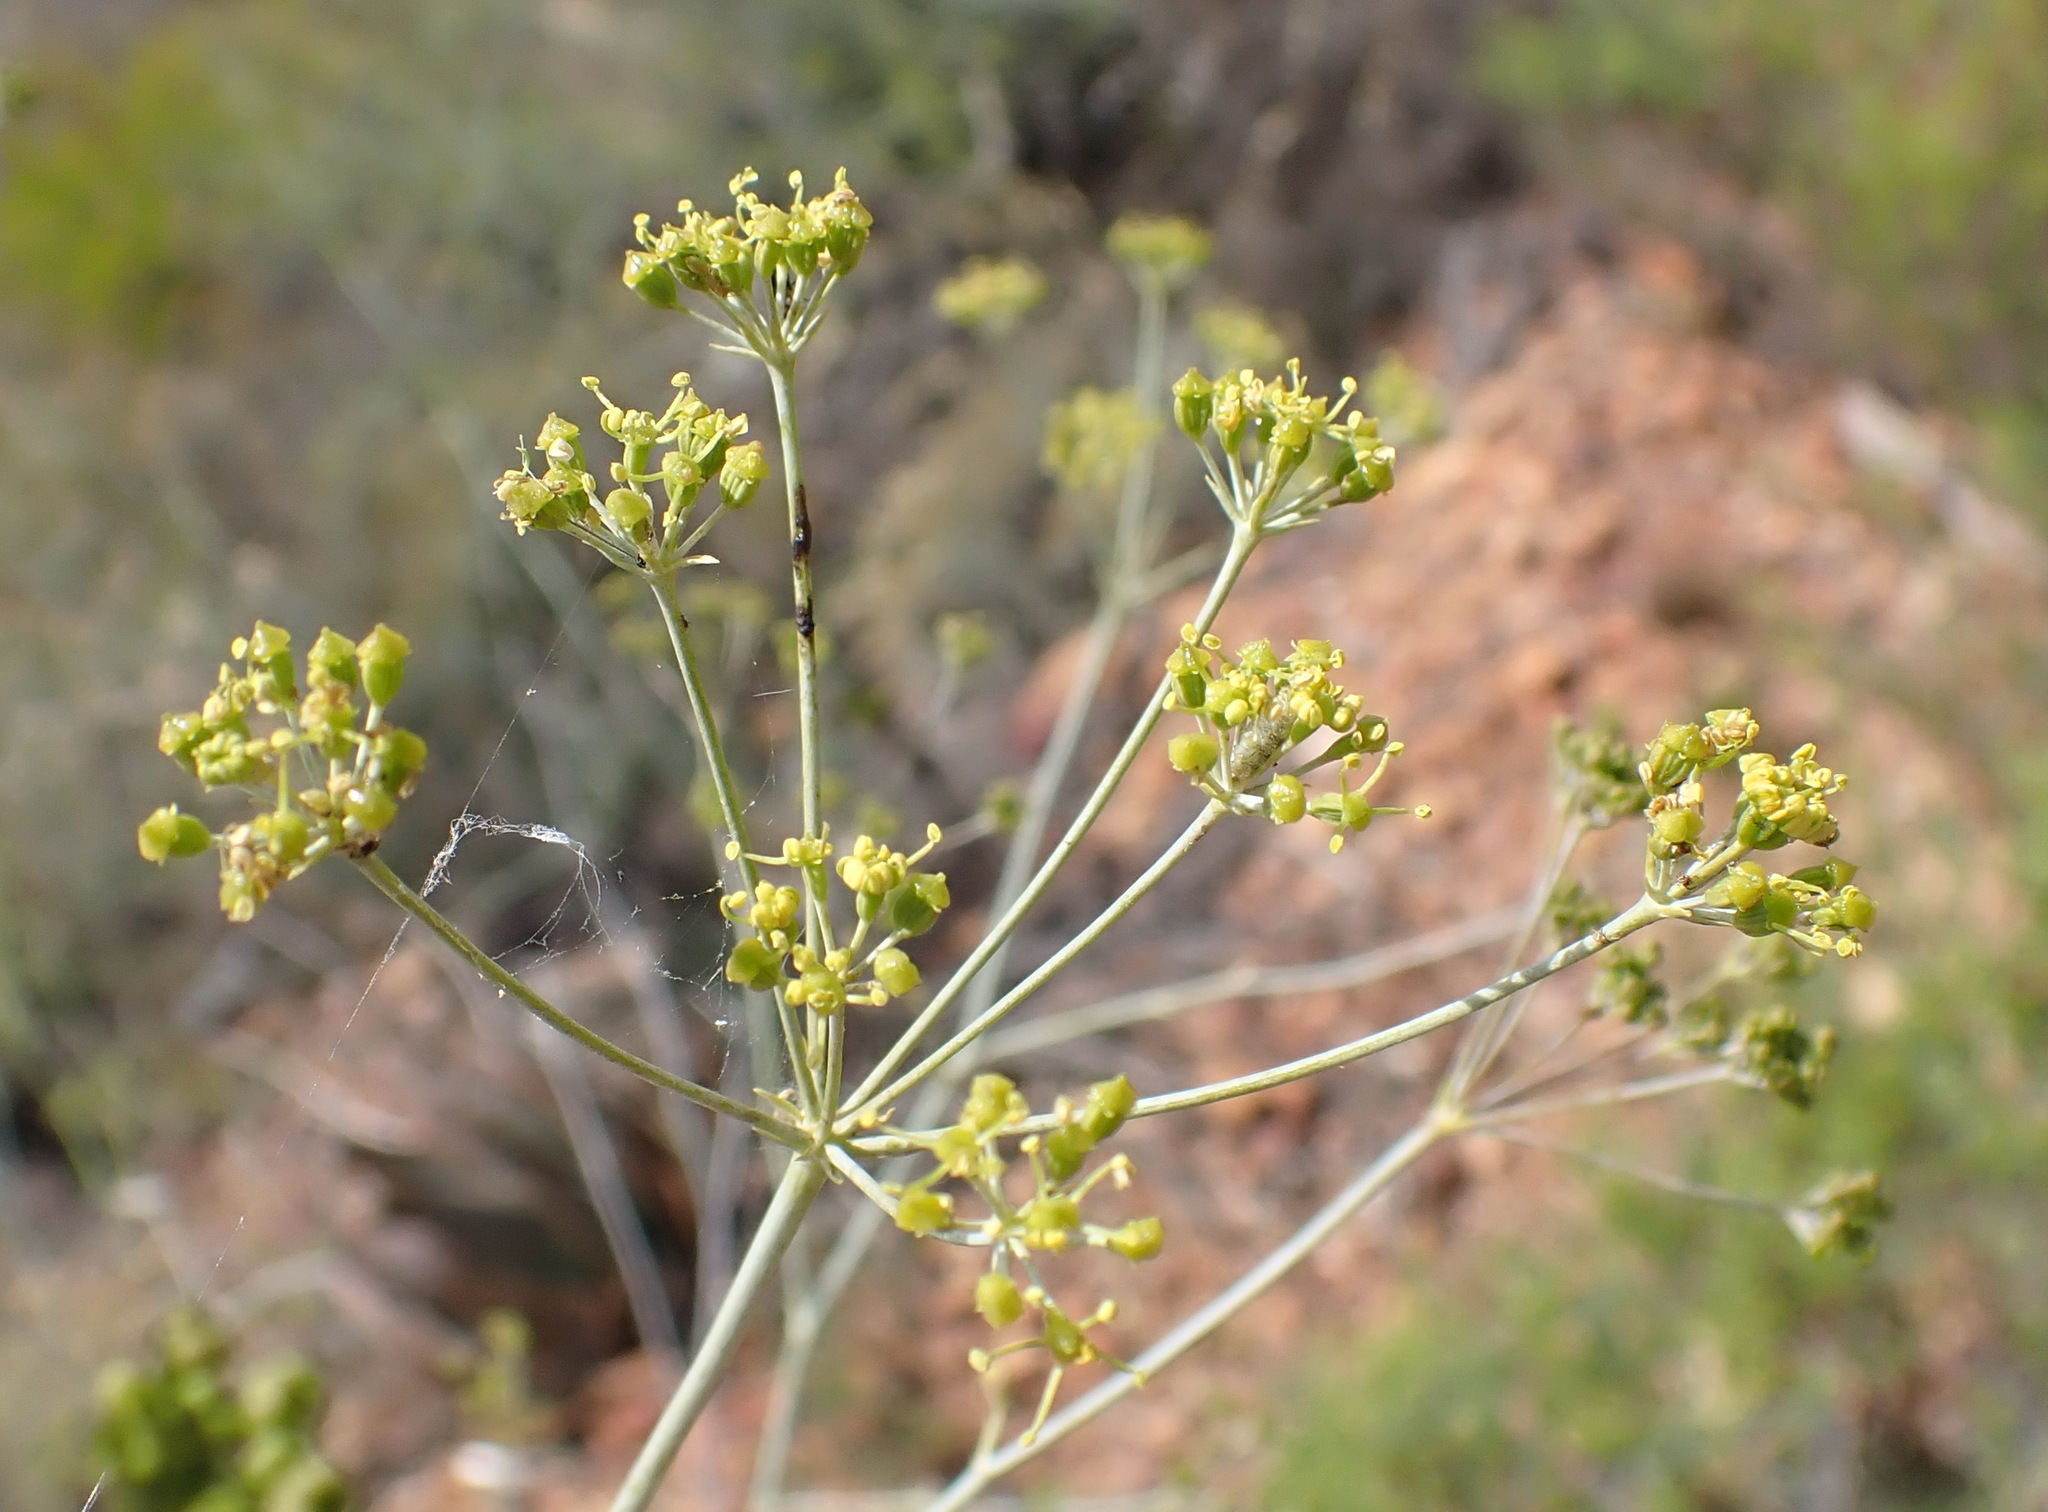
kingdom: Plantae
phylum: Tracheophyta
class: Magnoliopsida
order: Apiales
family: Apiaceae
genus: Anginon
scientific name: Anginon swellendamense
